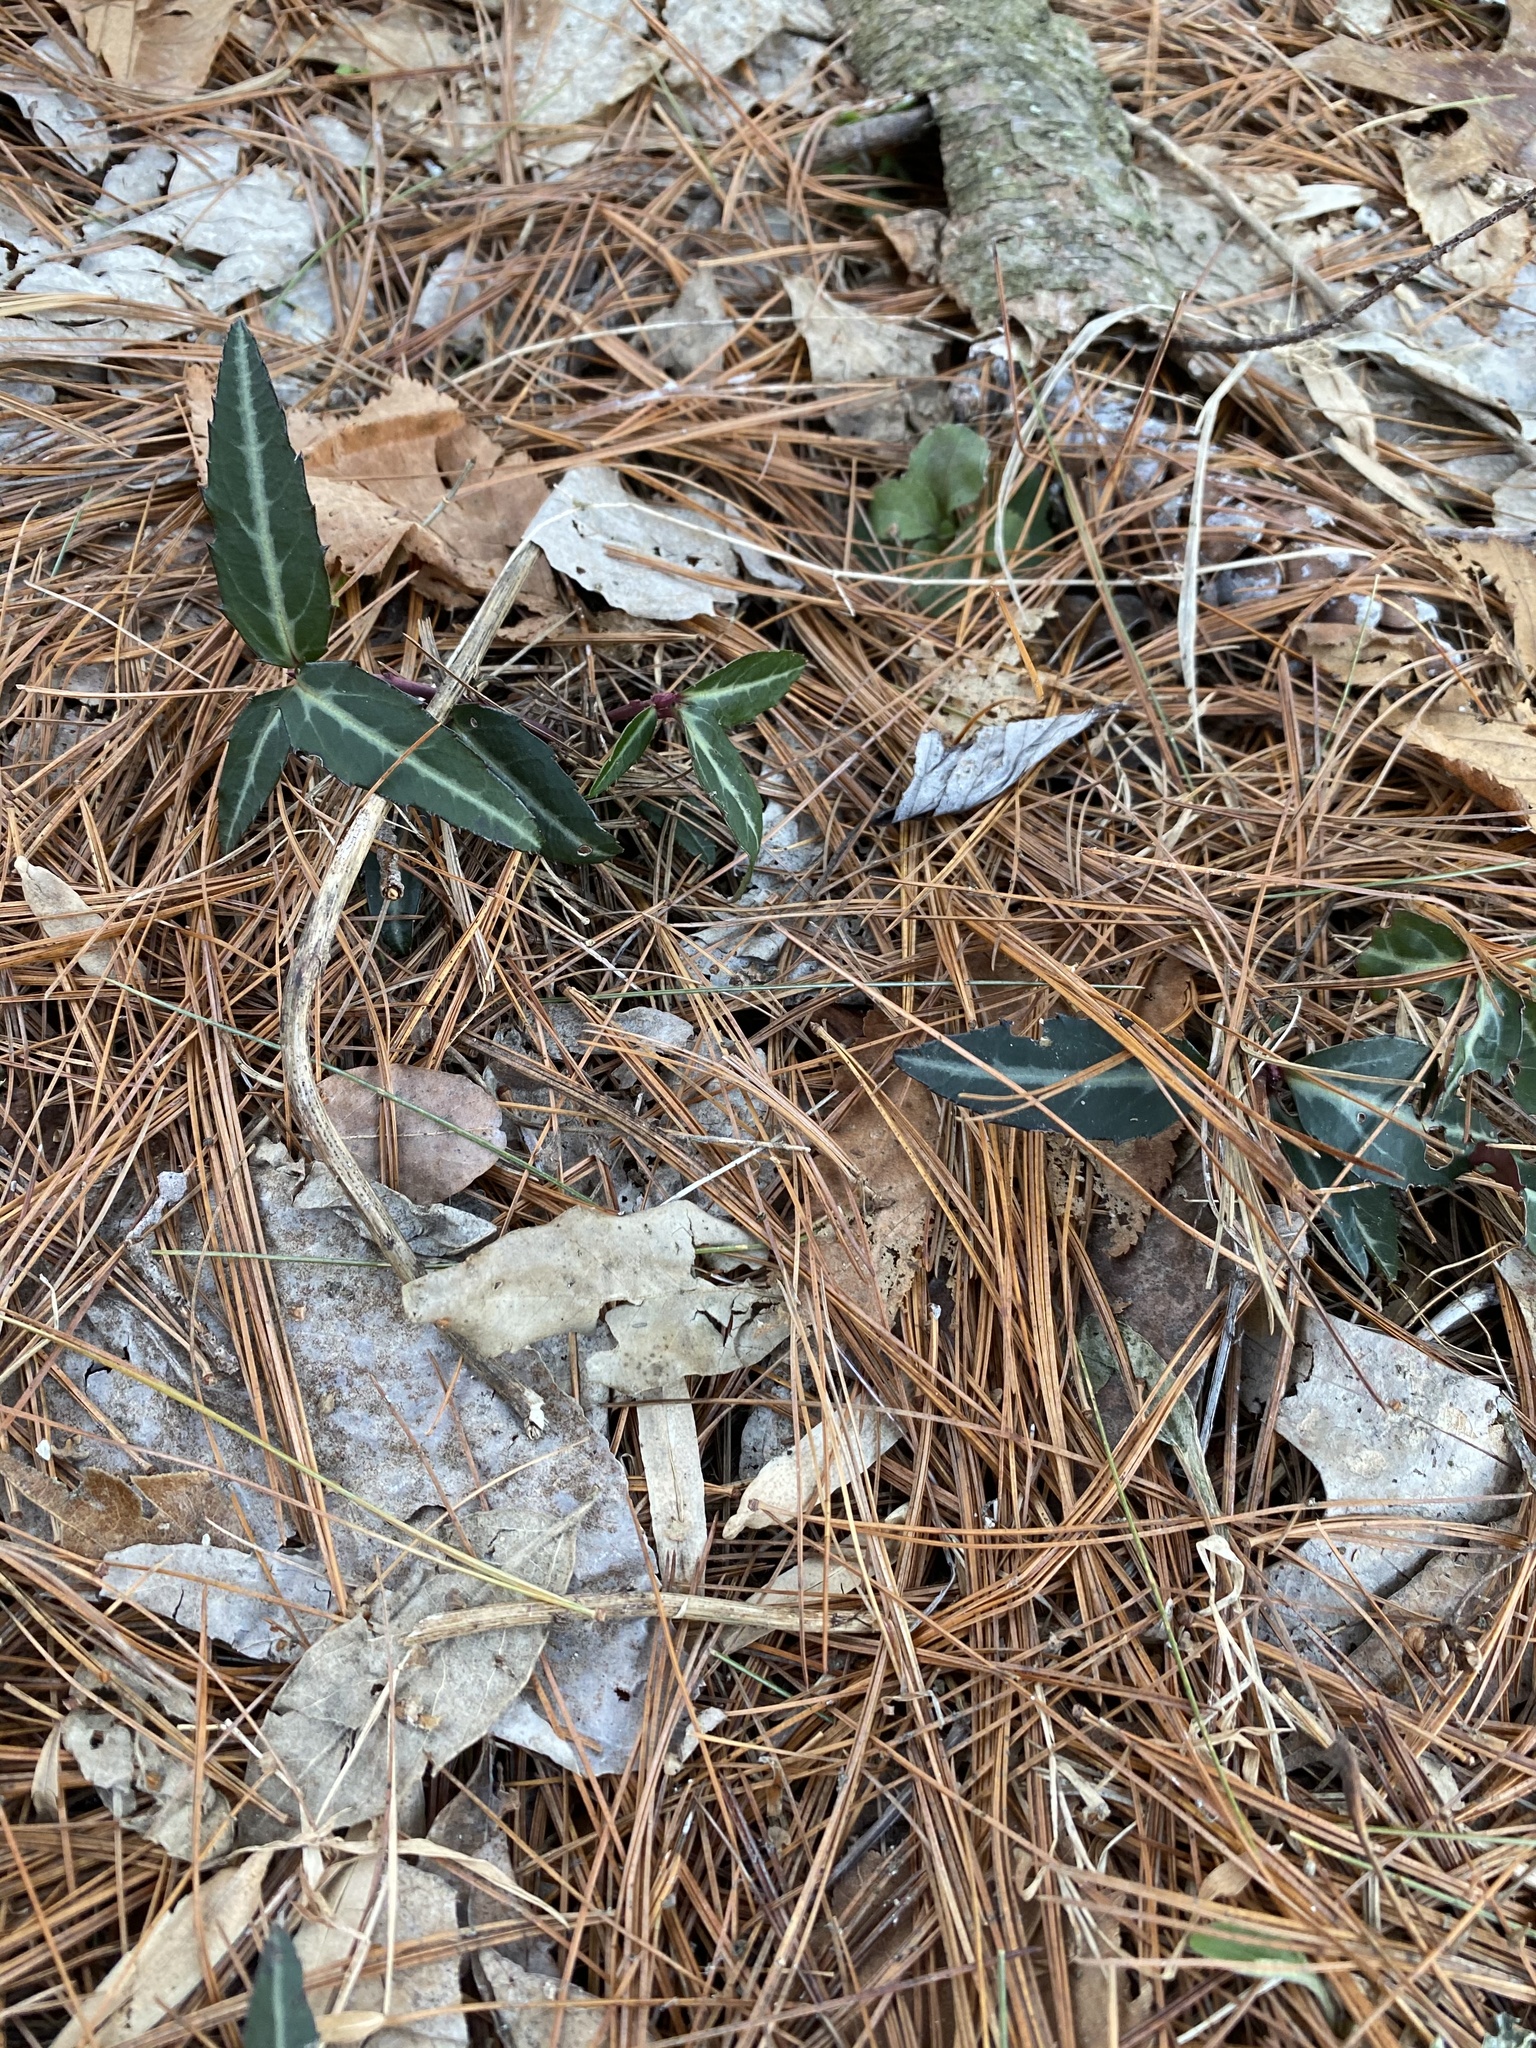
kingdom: Plantae
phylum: Tracheophyta
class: Magnoliopsida
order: Ericales
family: Ericaceae
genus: Chimaphila
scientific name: Chimaphila maculata
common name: Spotted pipsissewa
